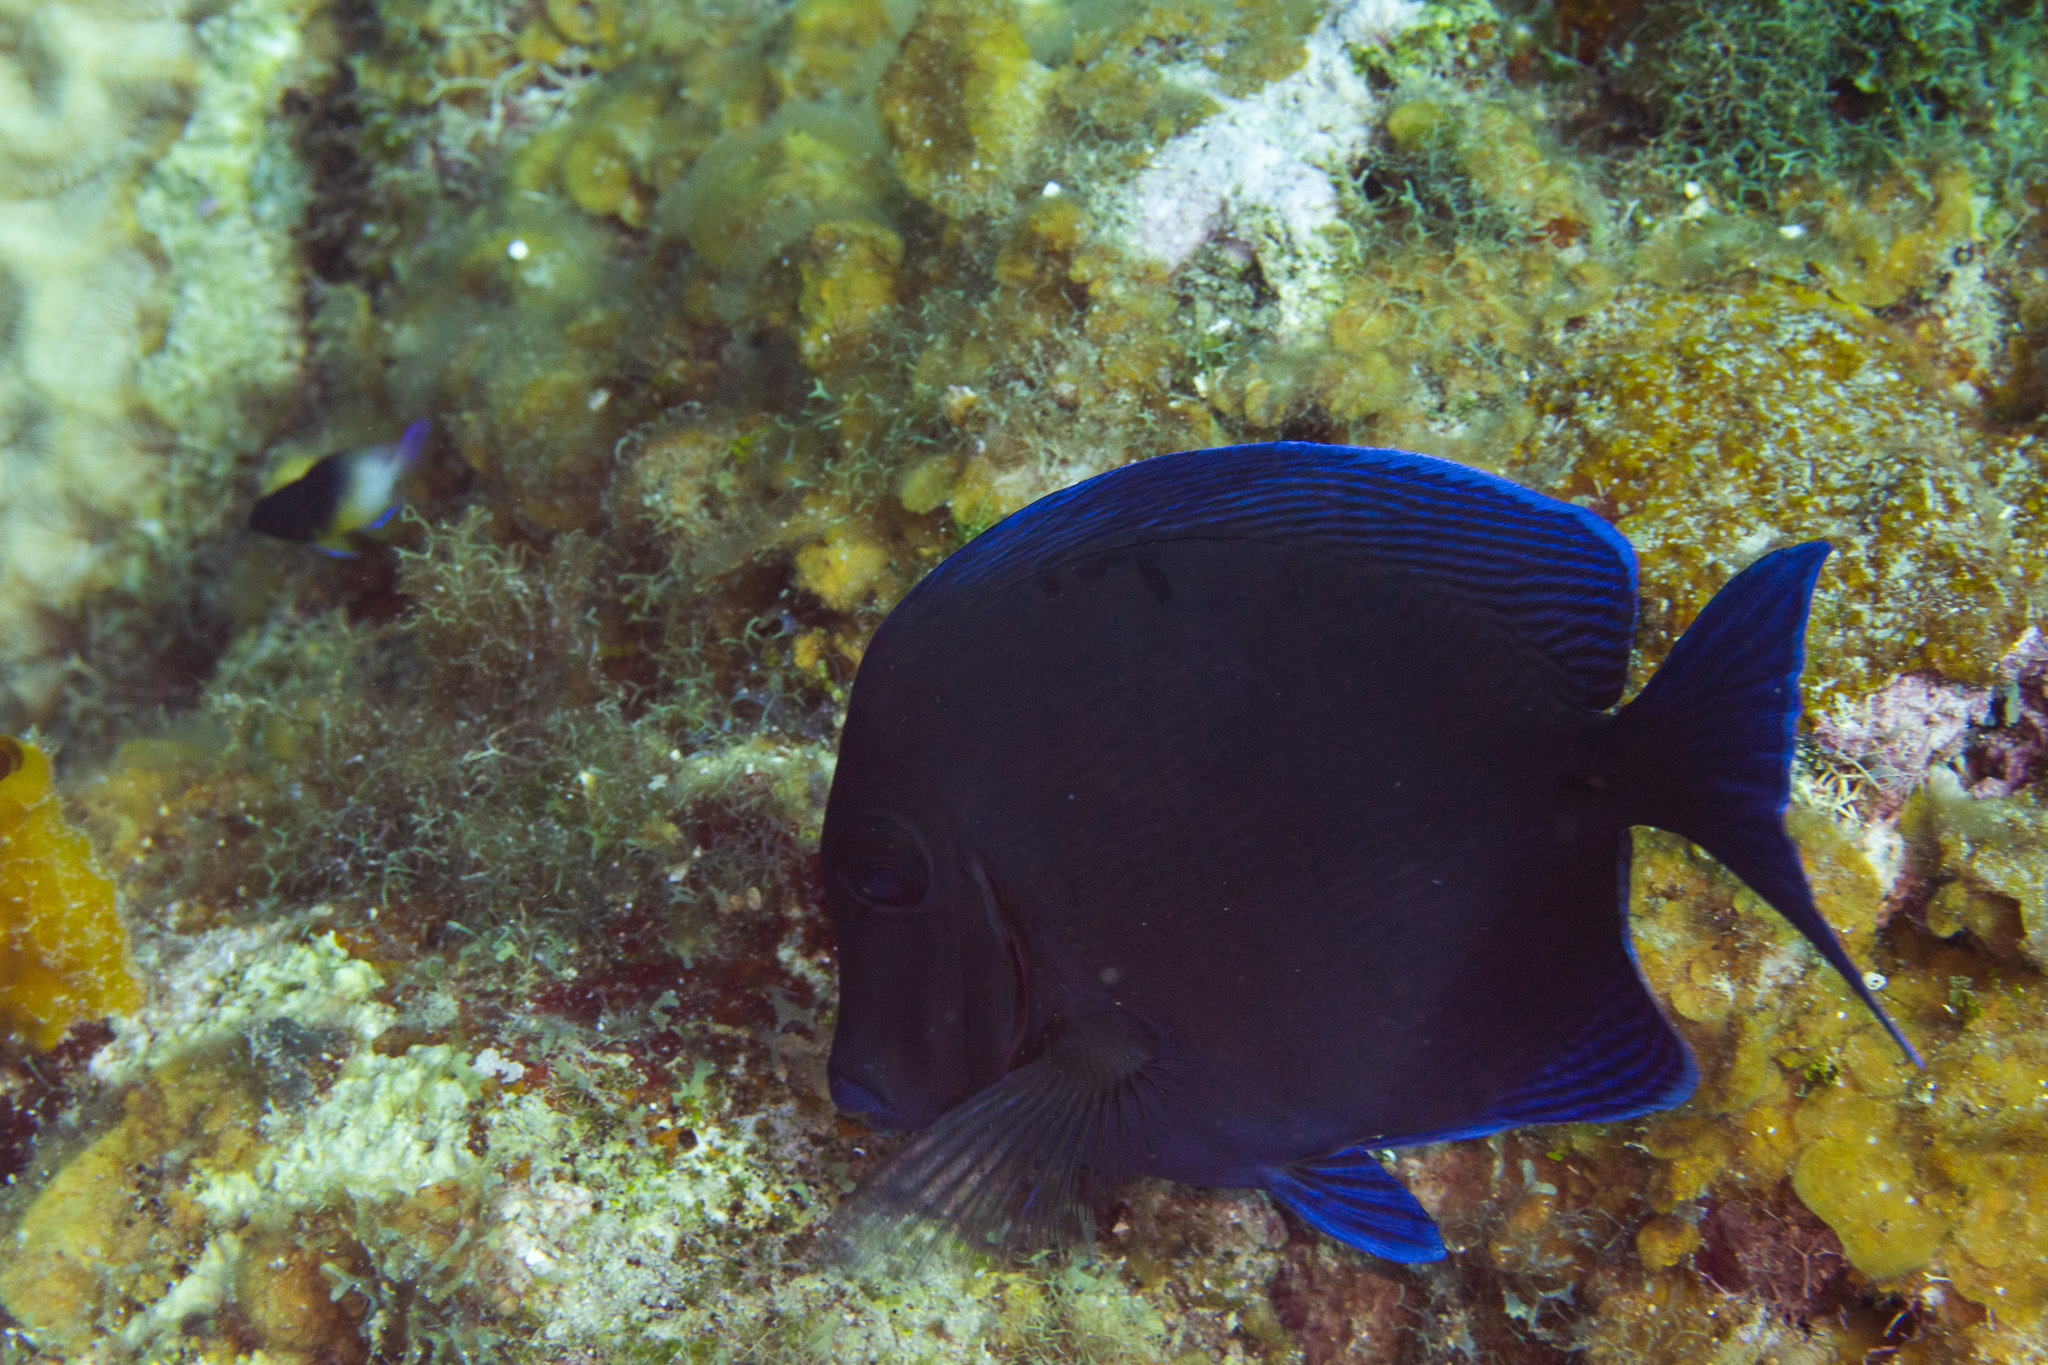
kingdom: Animalia
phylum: Chordata
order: Perciformes
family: Acanthuridae
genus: Acanthurus
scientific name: Acanthurus coeruleus
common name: Blue tang
